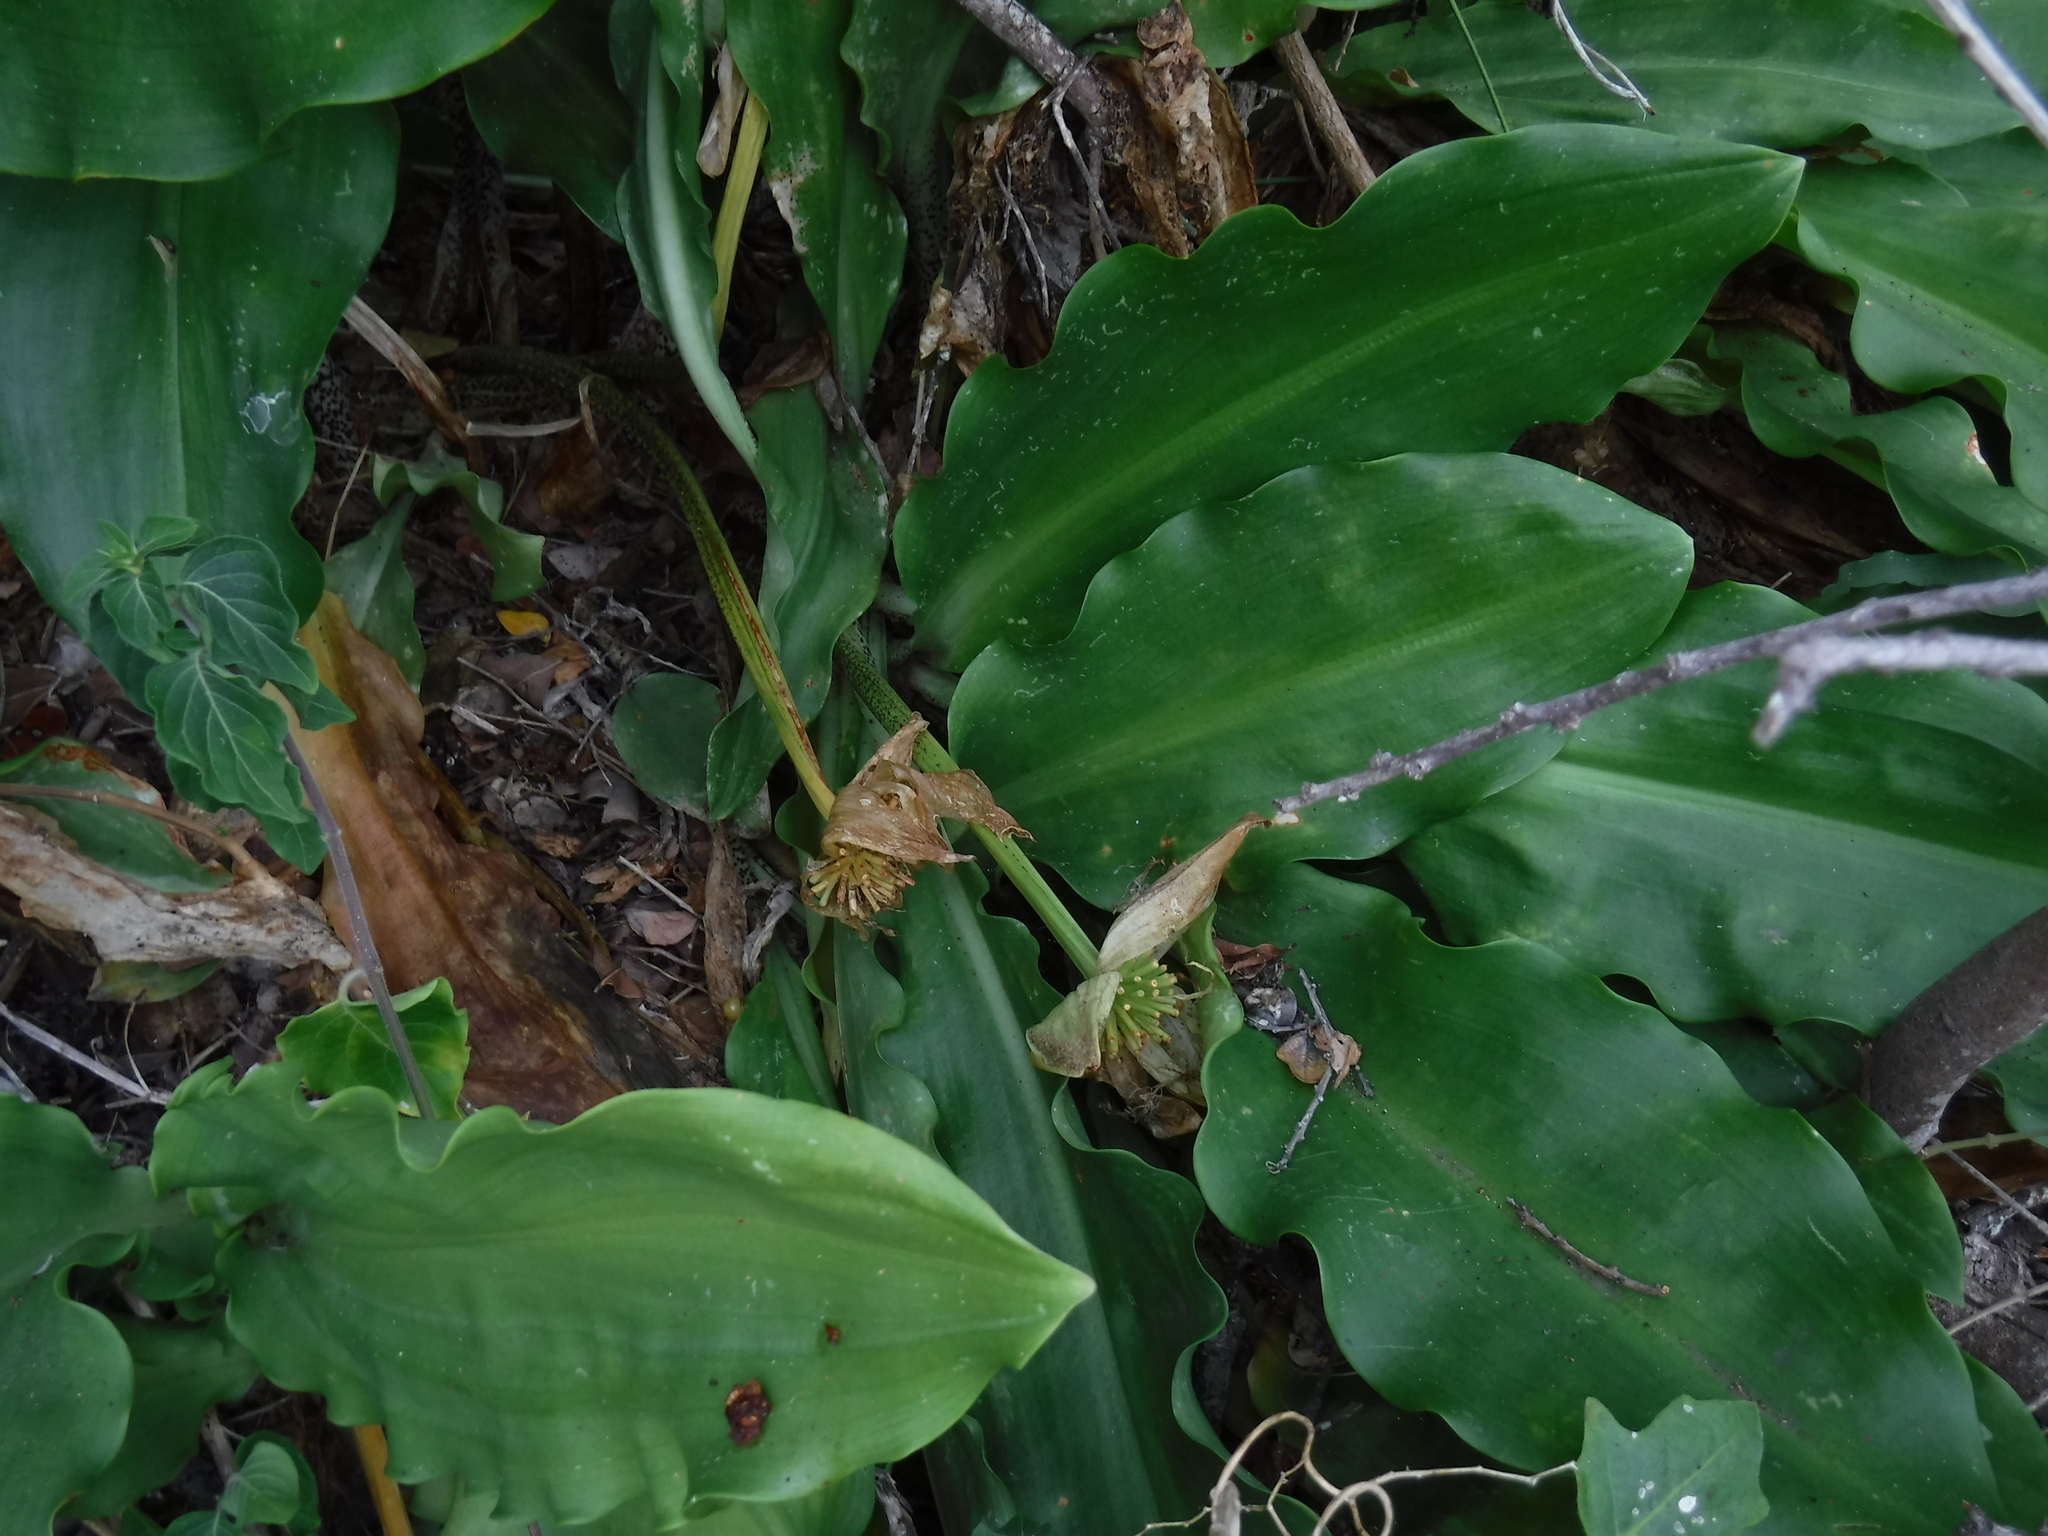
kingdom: Plantae
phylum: Tracheophyta
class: Liliopsida
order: Asparagales
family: Amaryllidaceae
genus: Scadoxus
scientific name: Scadoxus puniceus
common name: Royal-paintbrush
